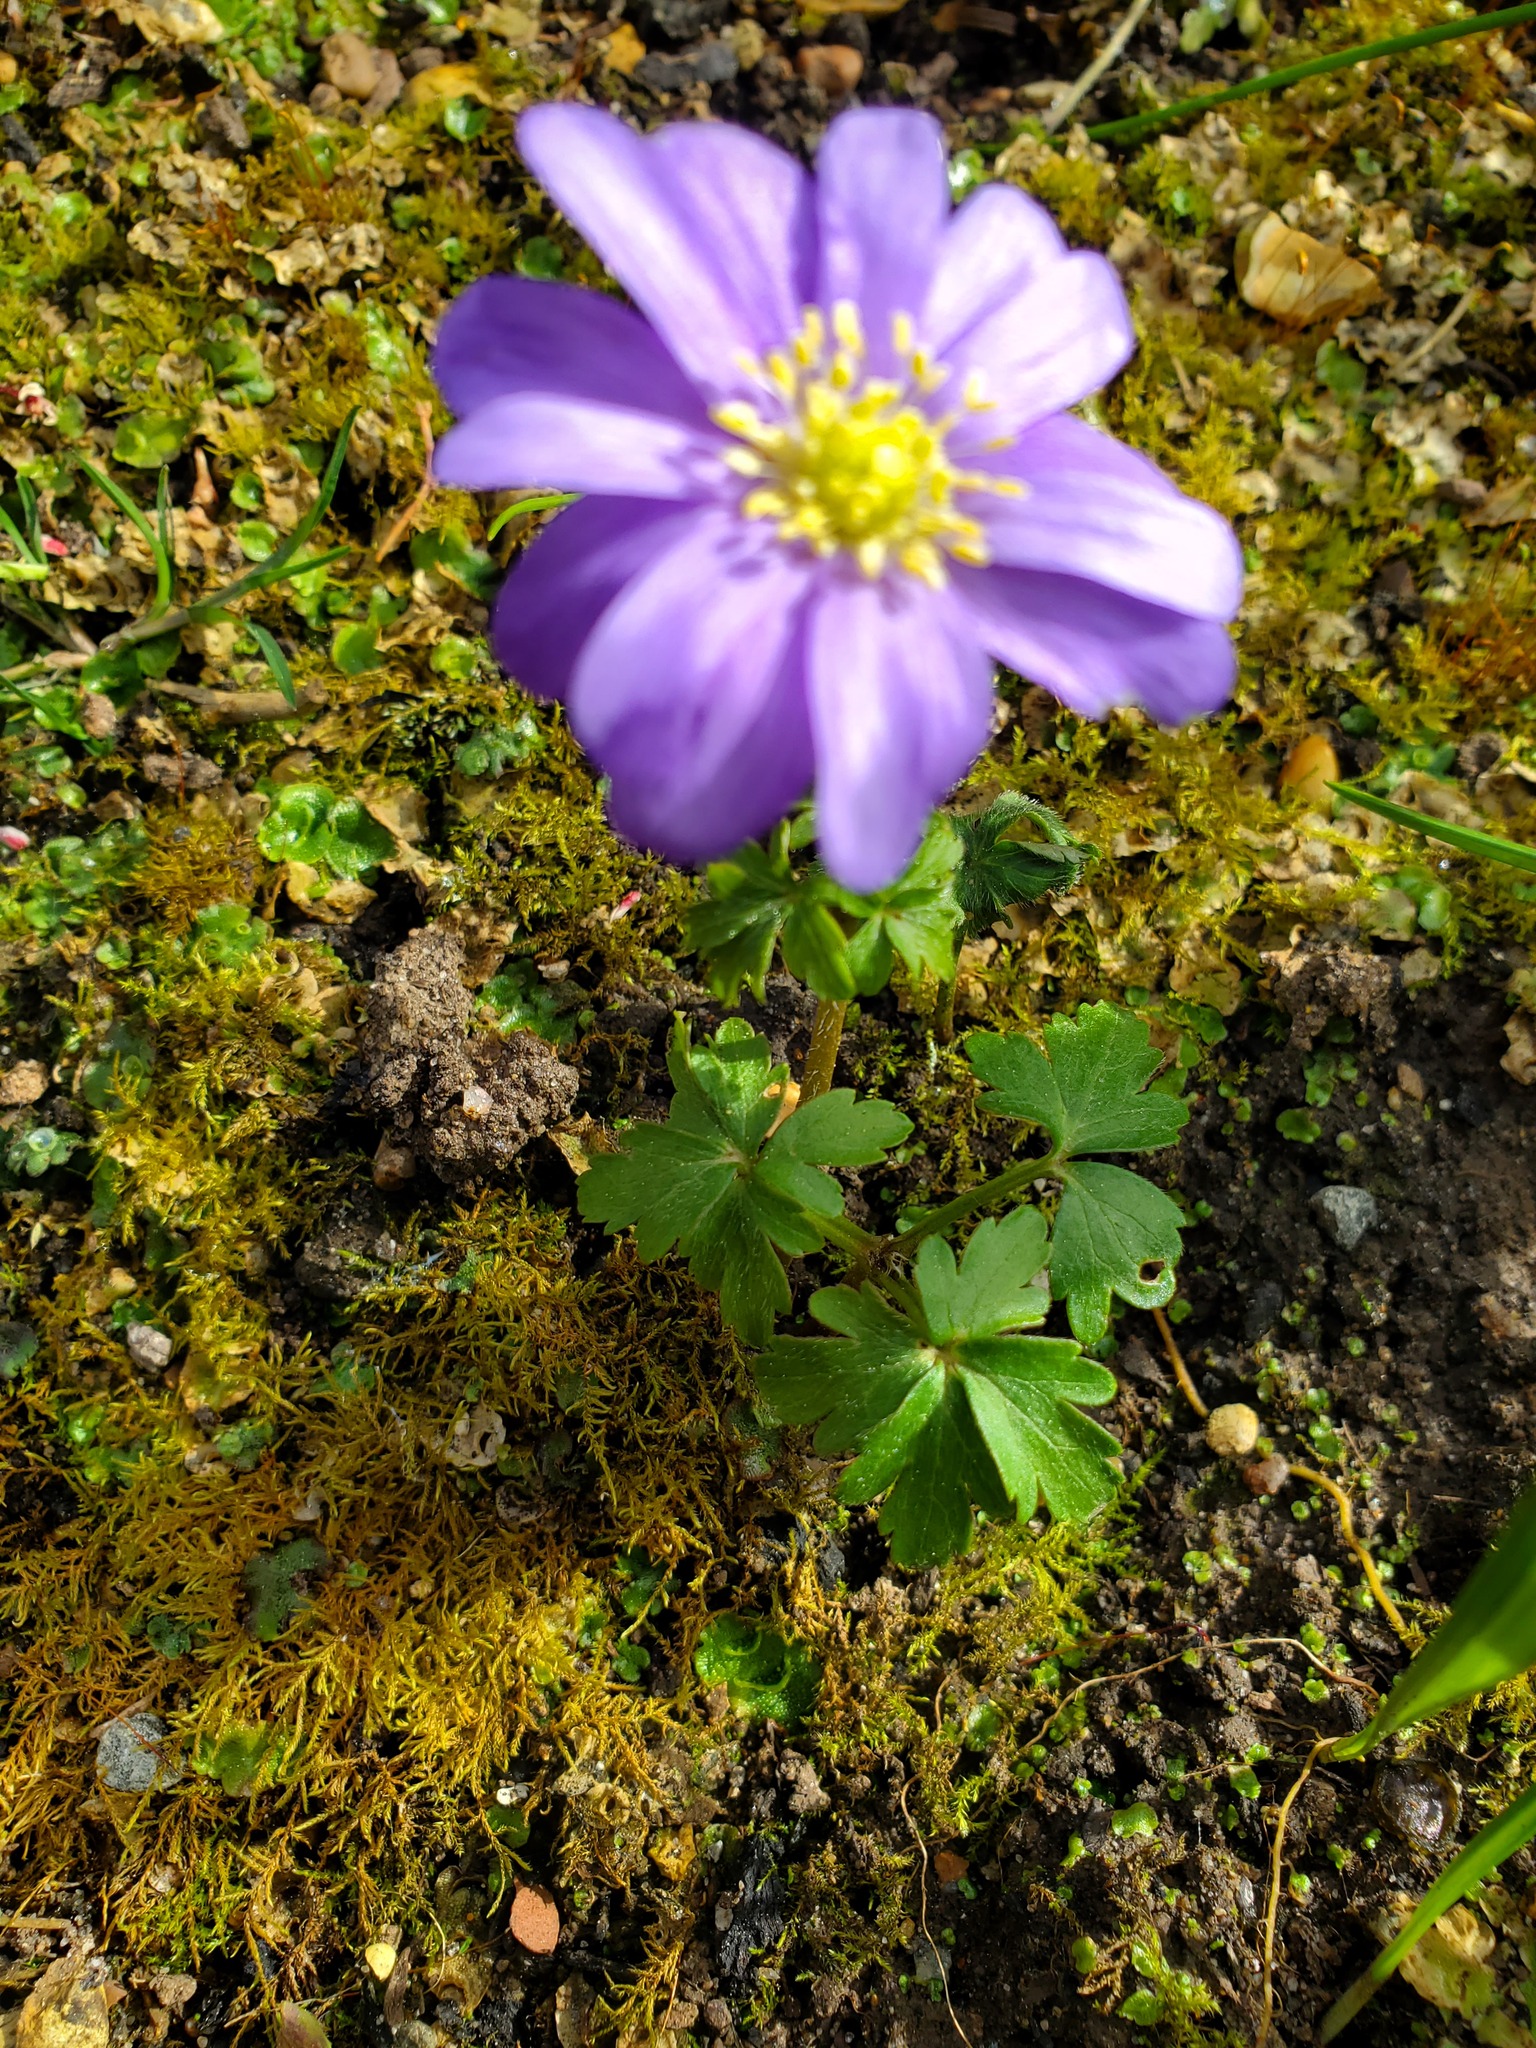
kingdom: Plantae
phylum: Tracheophyta
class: Magnoliopsida
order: Ranunculales
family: Ranunculaceae
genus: Anemone
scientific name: Anemone blanda
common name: Balkan anemone
